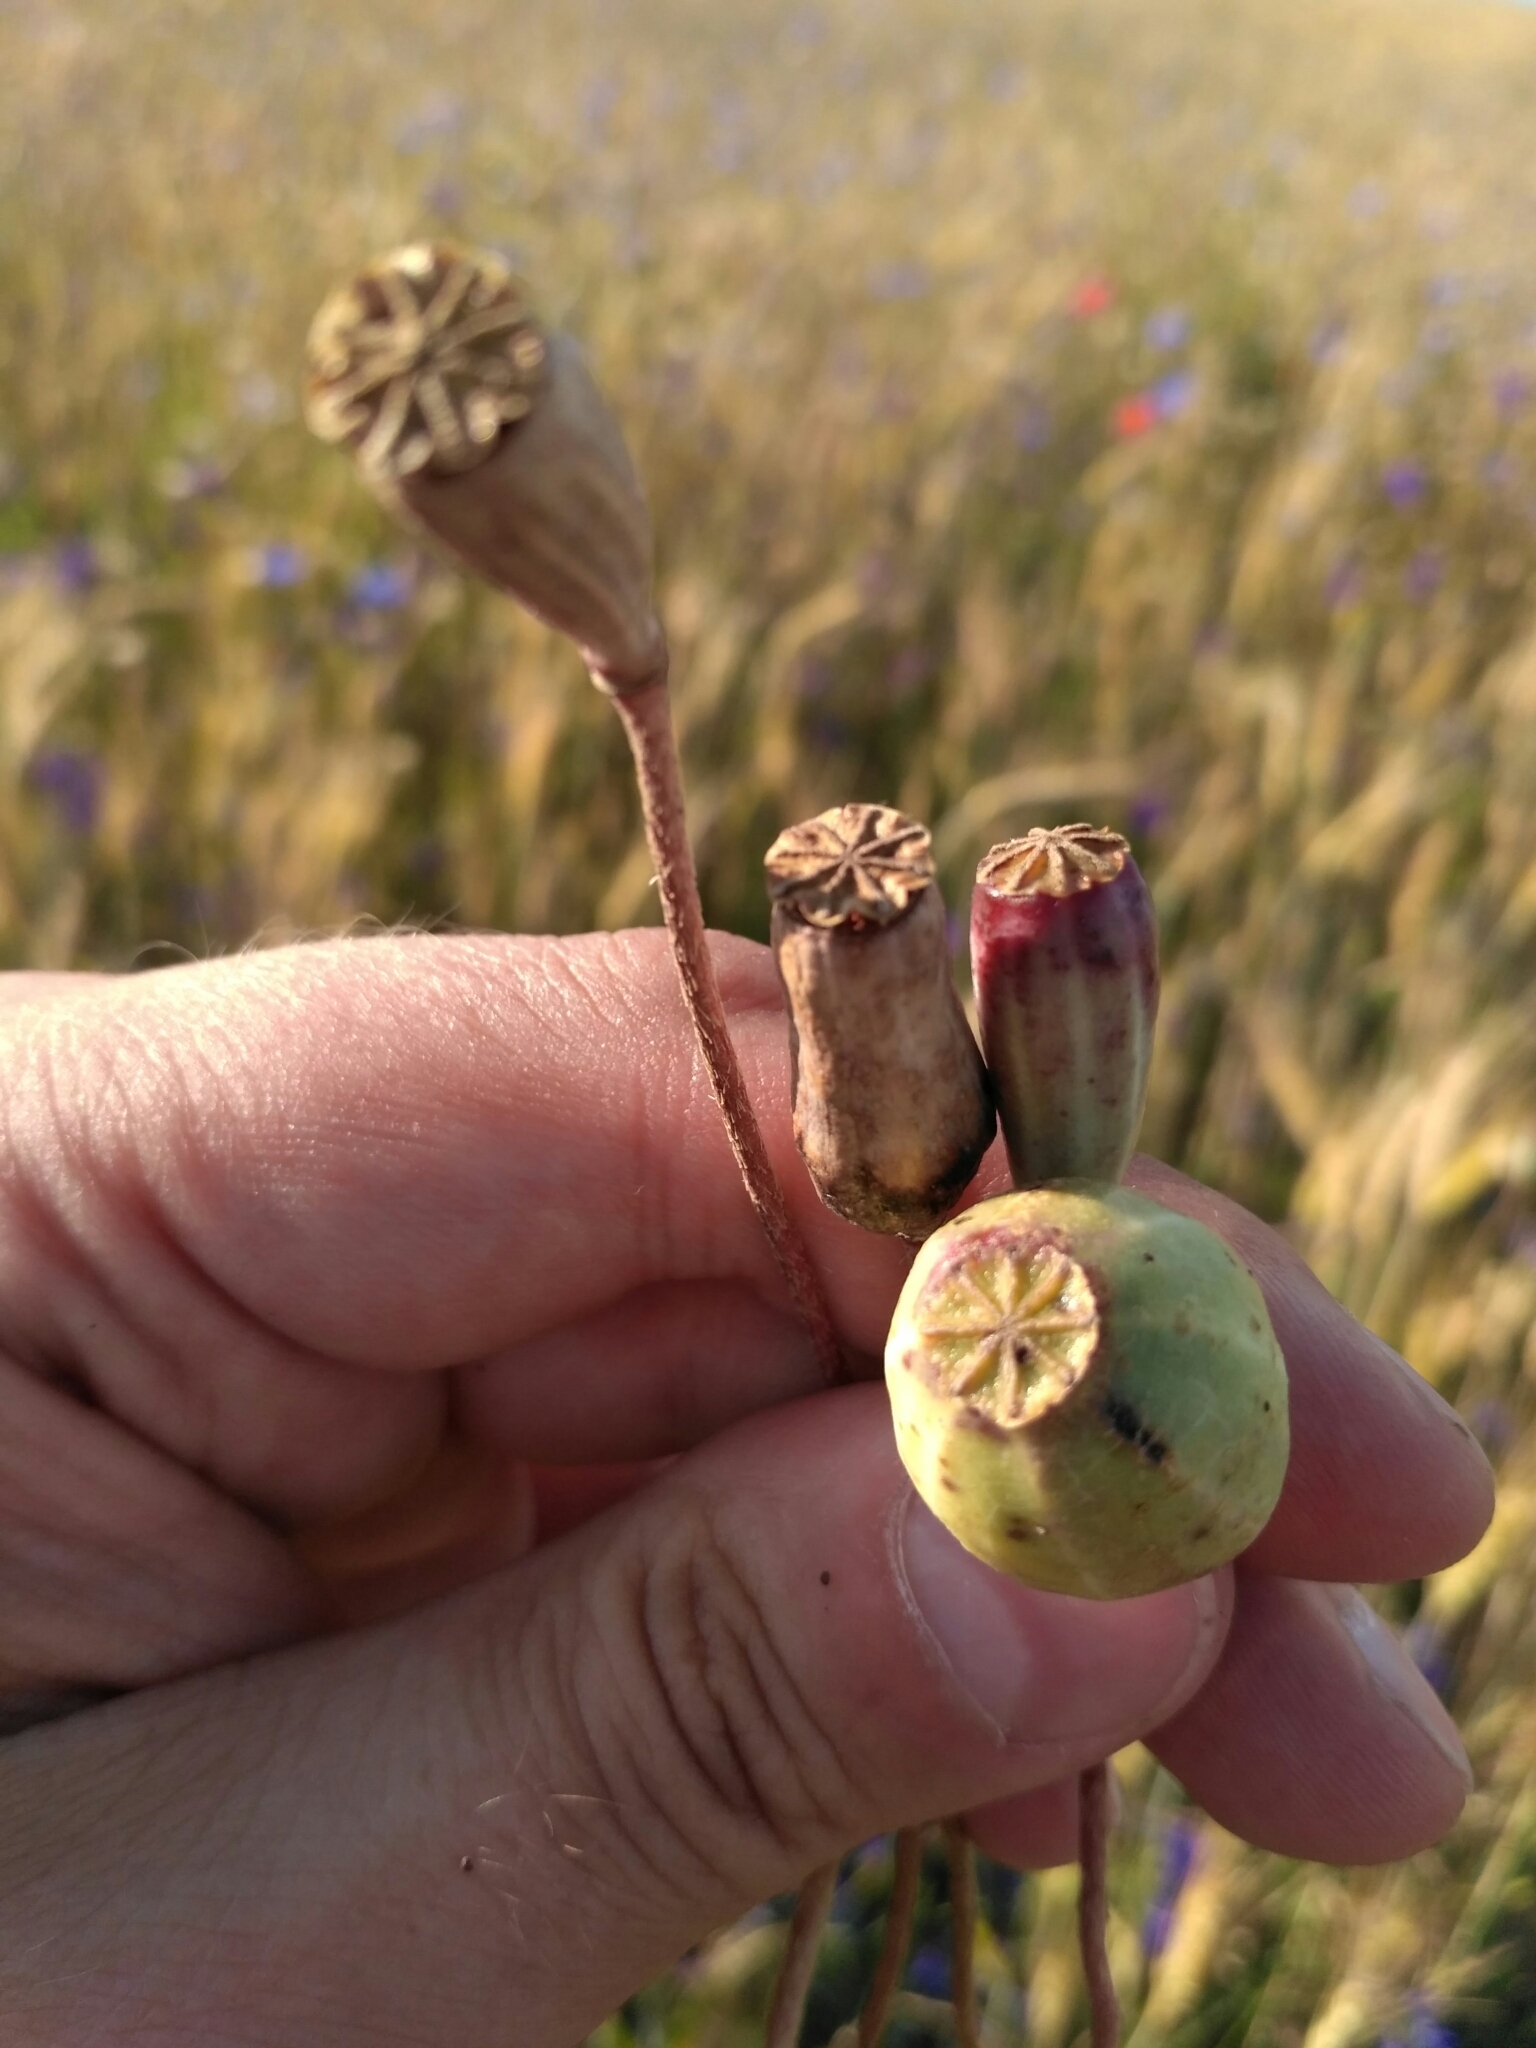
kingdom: Plantae
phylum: Tracheophyta
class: Magnoliopsida
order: Ranunculales
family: Papaveraceae
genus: Papaver
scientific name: Papaver dubium
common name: Long-headed poppy
